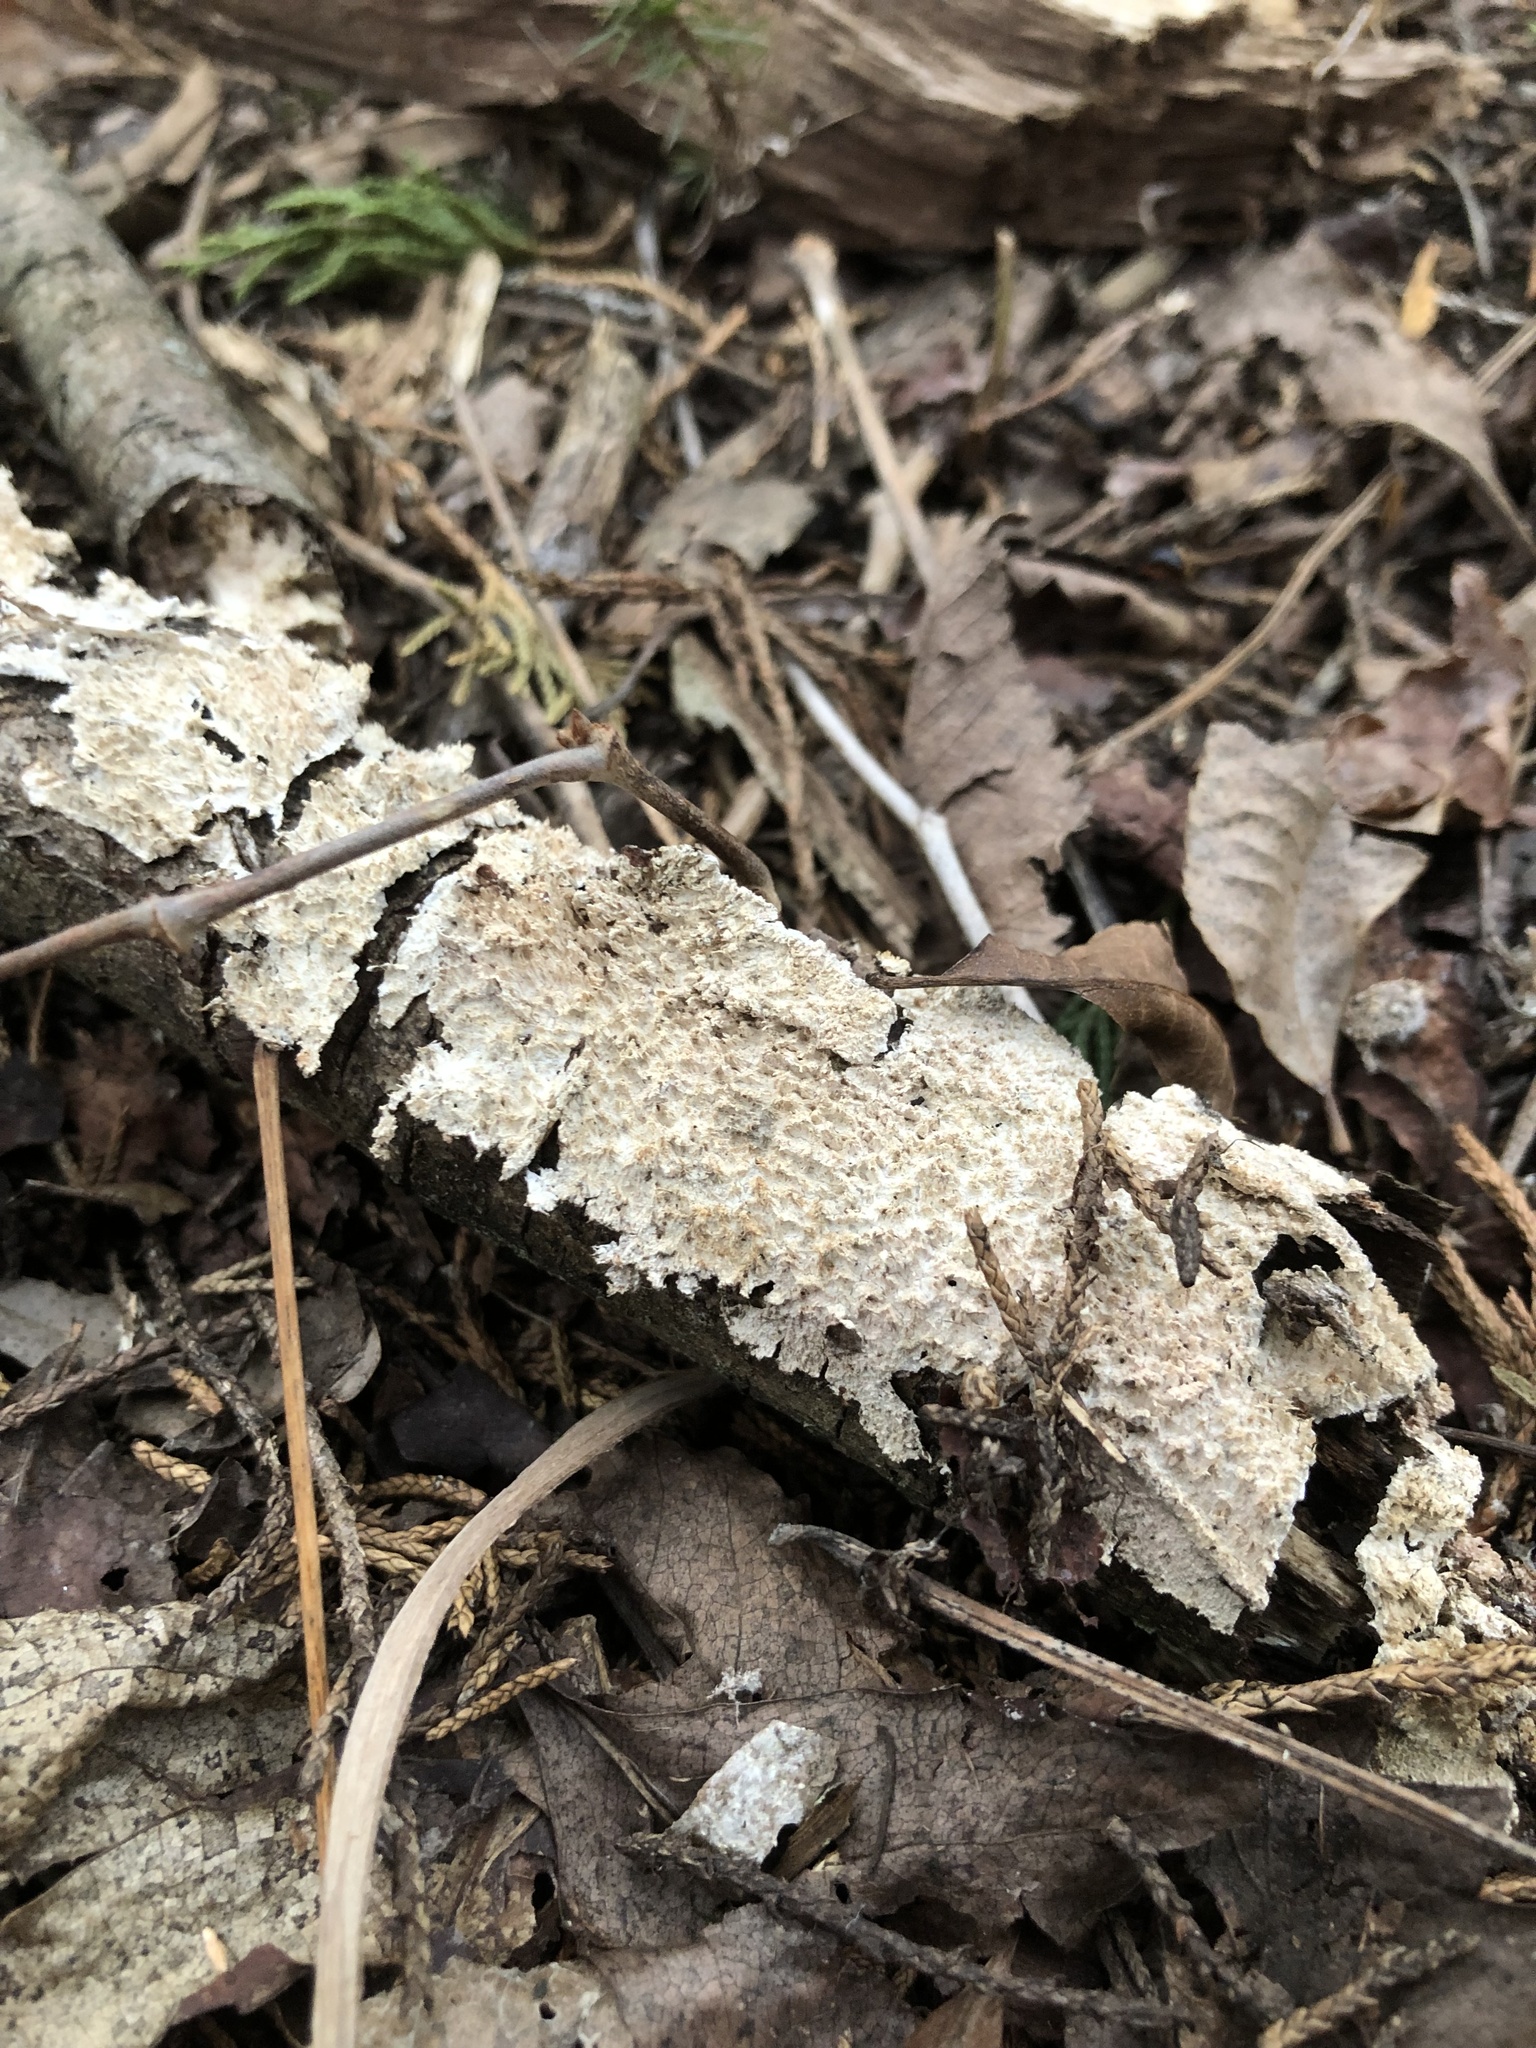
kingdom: Fungi
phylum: Basidiomycota
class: Agaricomycetes
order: Polyporales
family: Irpicaceae
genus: Irpex
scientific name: Irpex lacteus
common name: Milk-white toothed polypore
